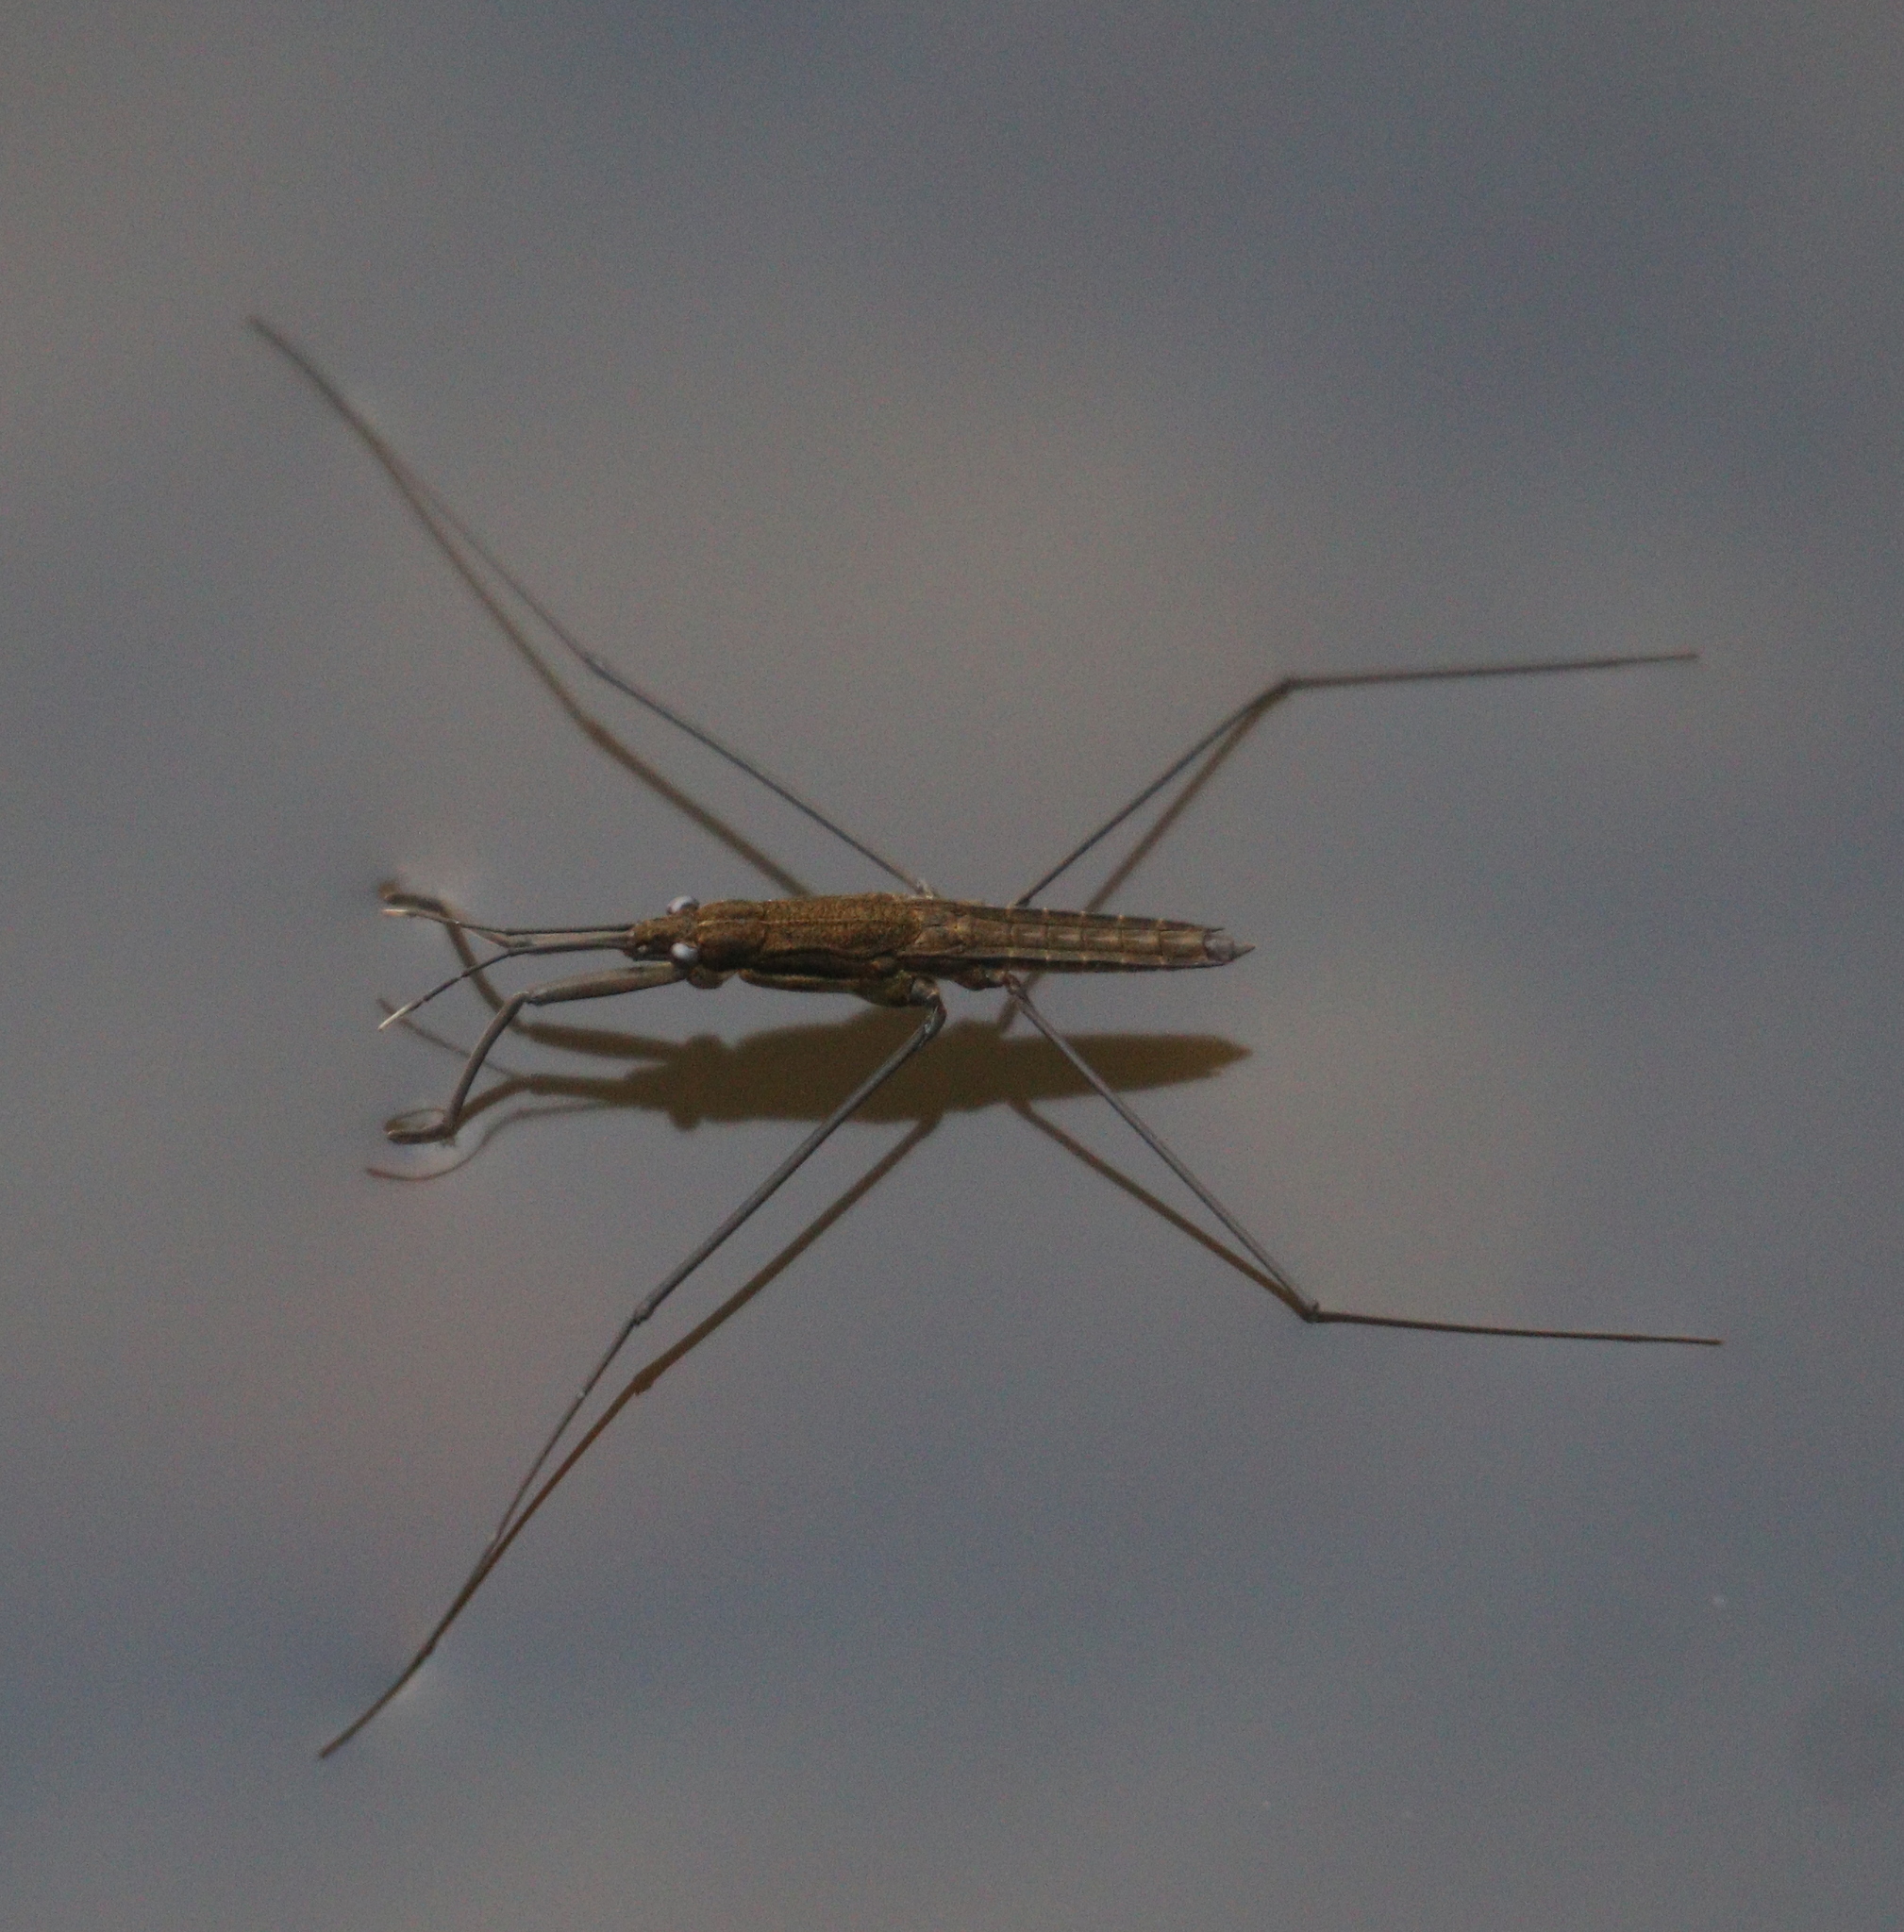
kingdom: Animalia
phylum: Arthropoda
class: Insecta
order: Hemiptera
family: Gerridae
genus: Aquarius
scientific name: Aquarius najas
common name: River skater
